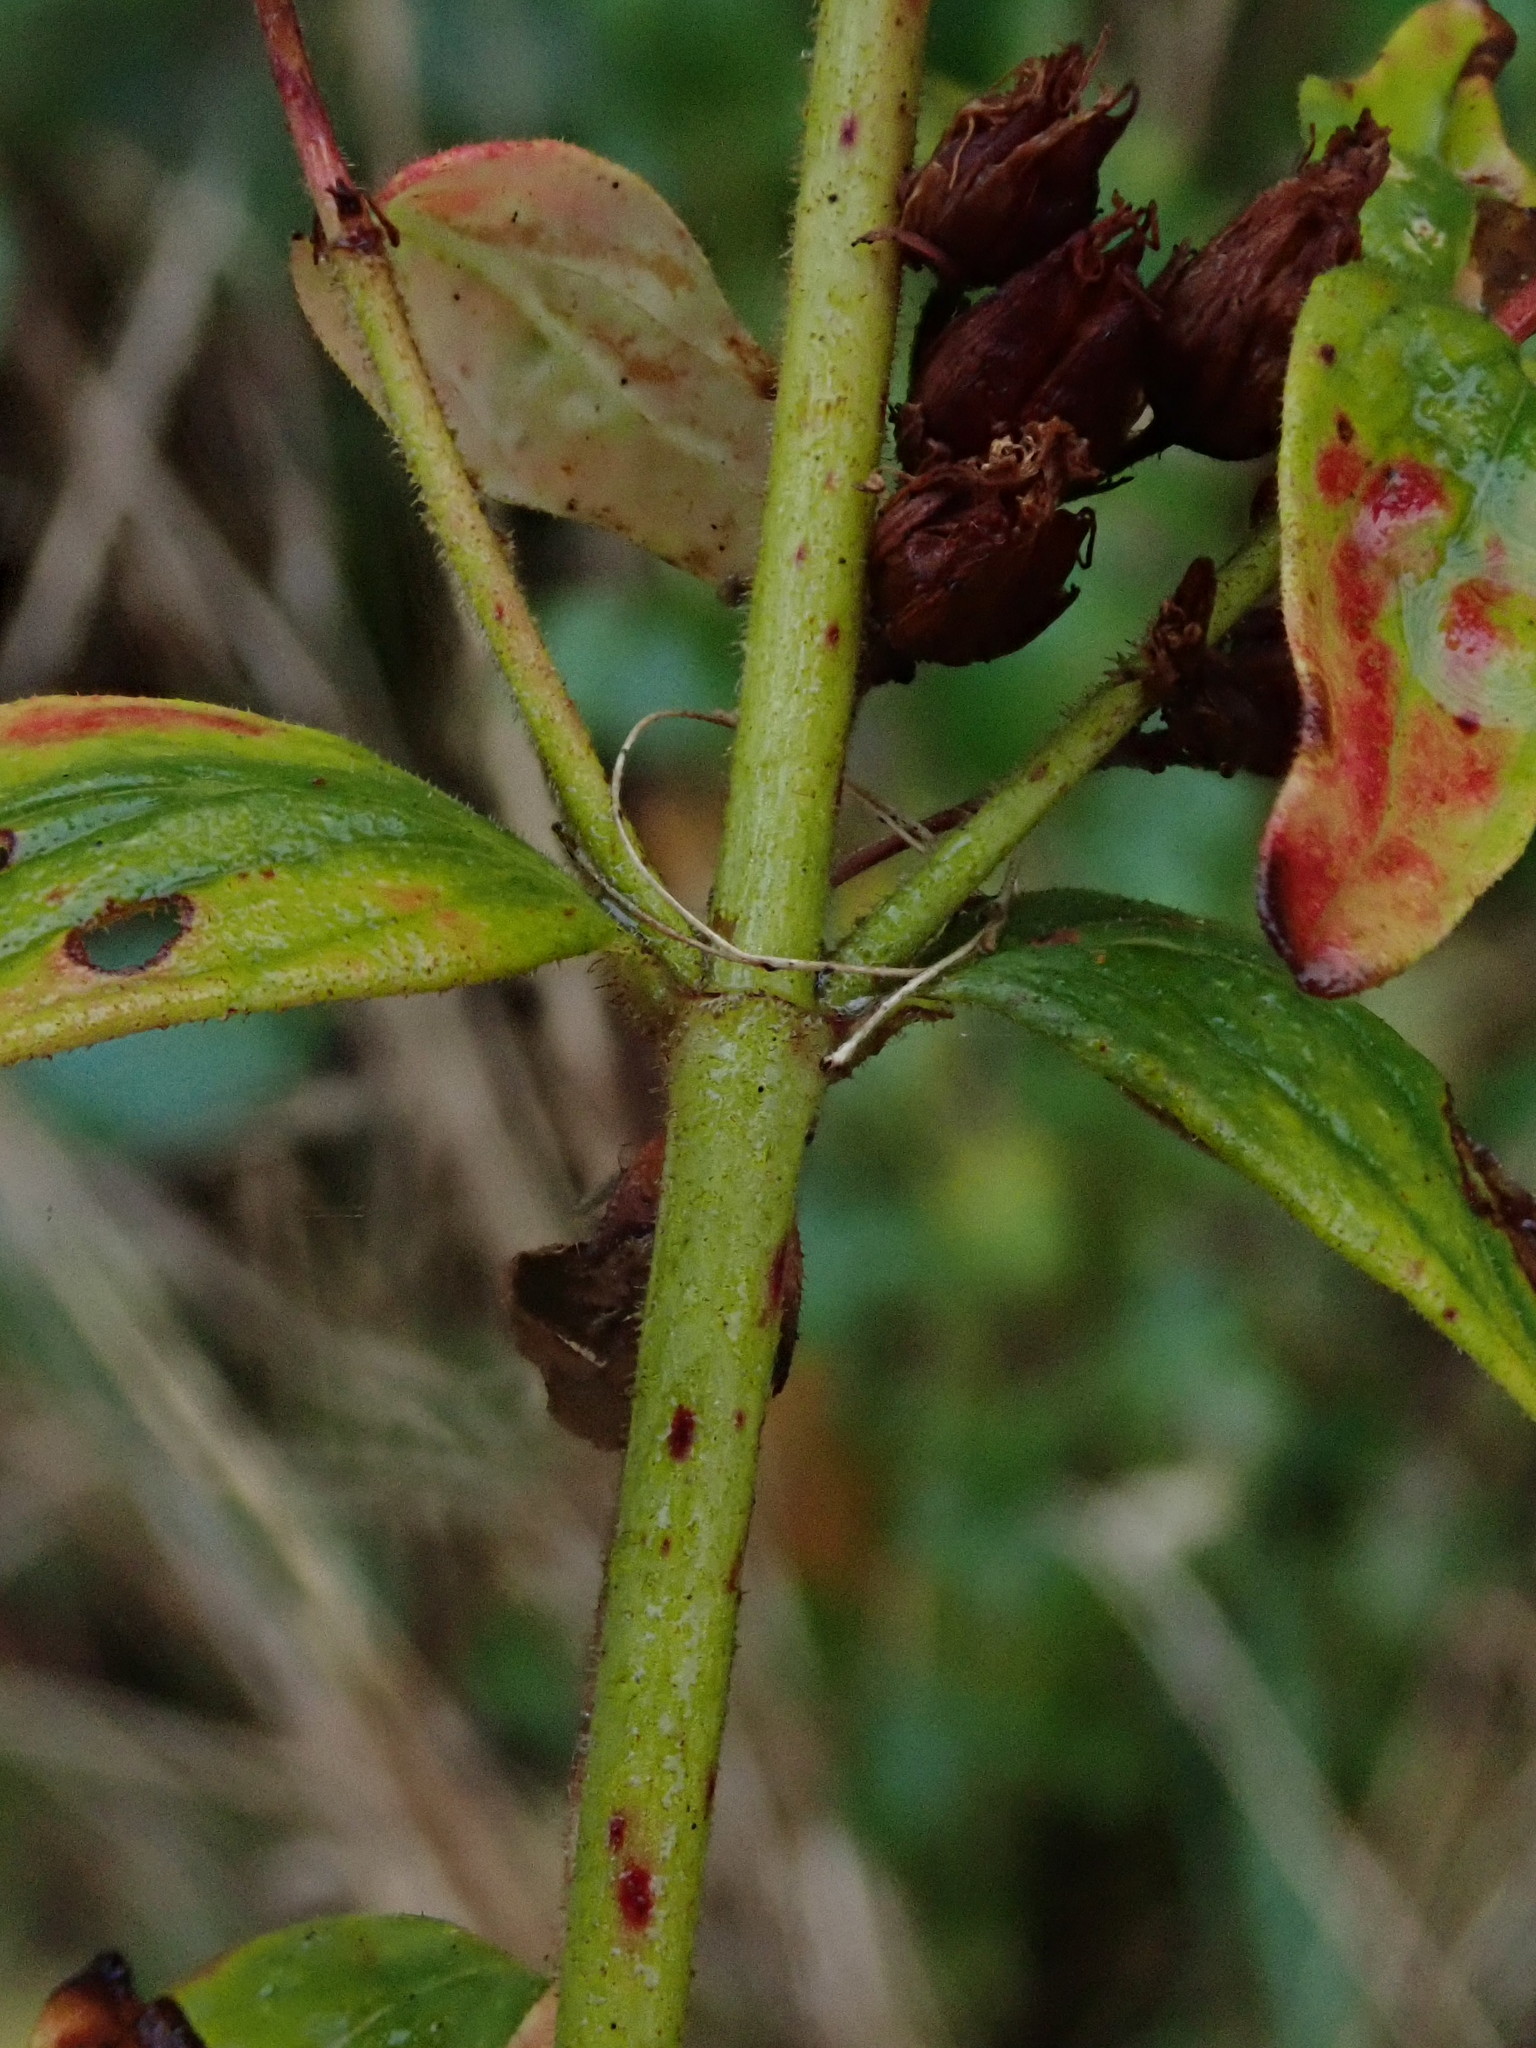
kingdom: Plantae
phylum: Tracheophyta
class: Magnoliopsida
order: Malpighiales
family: Hypericaceae
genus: Hypericum
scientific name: Hypericum hirsutum
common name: Hairy st. john's-wort
